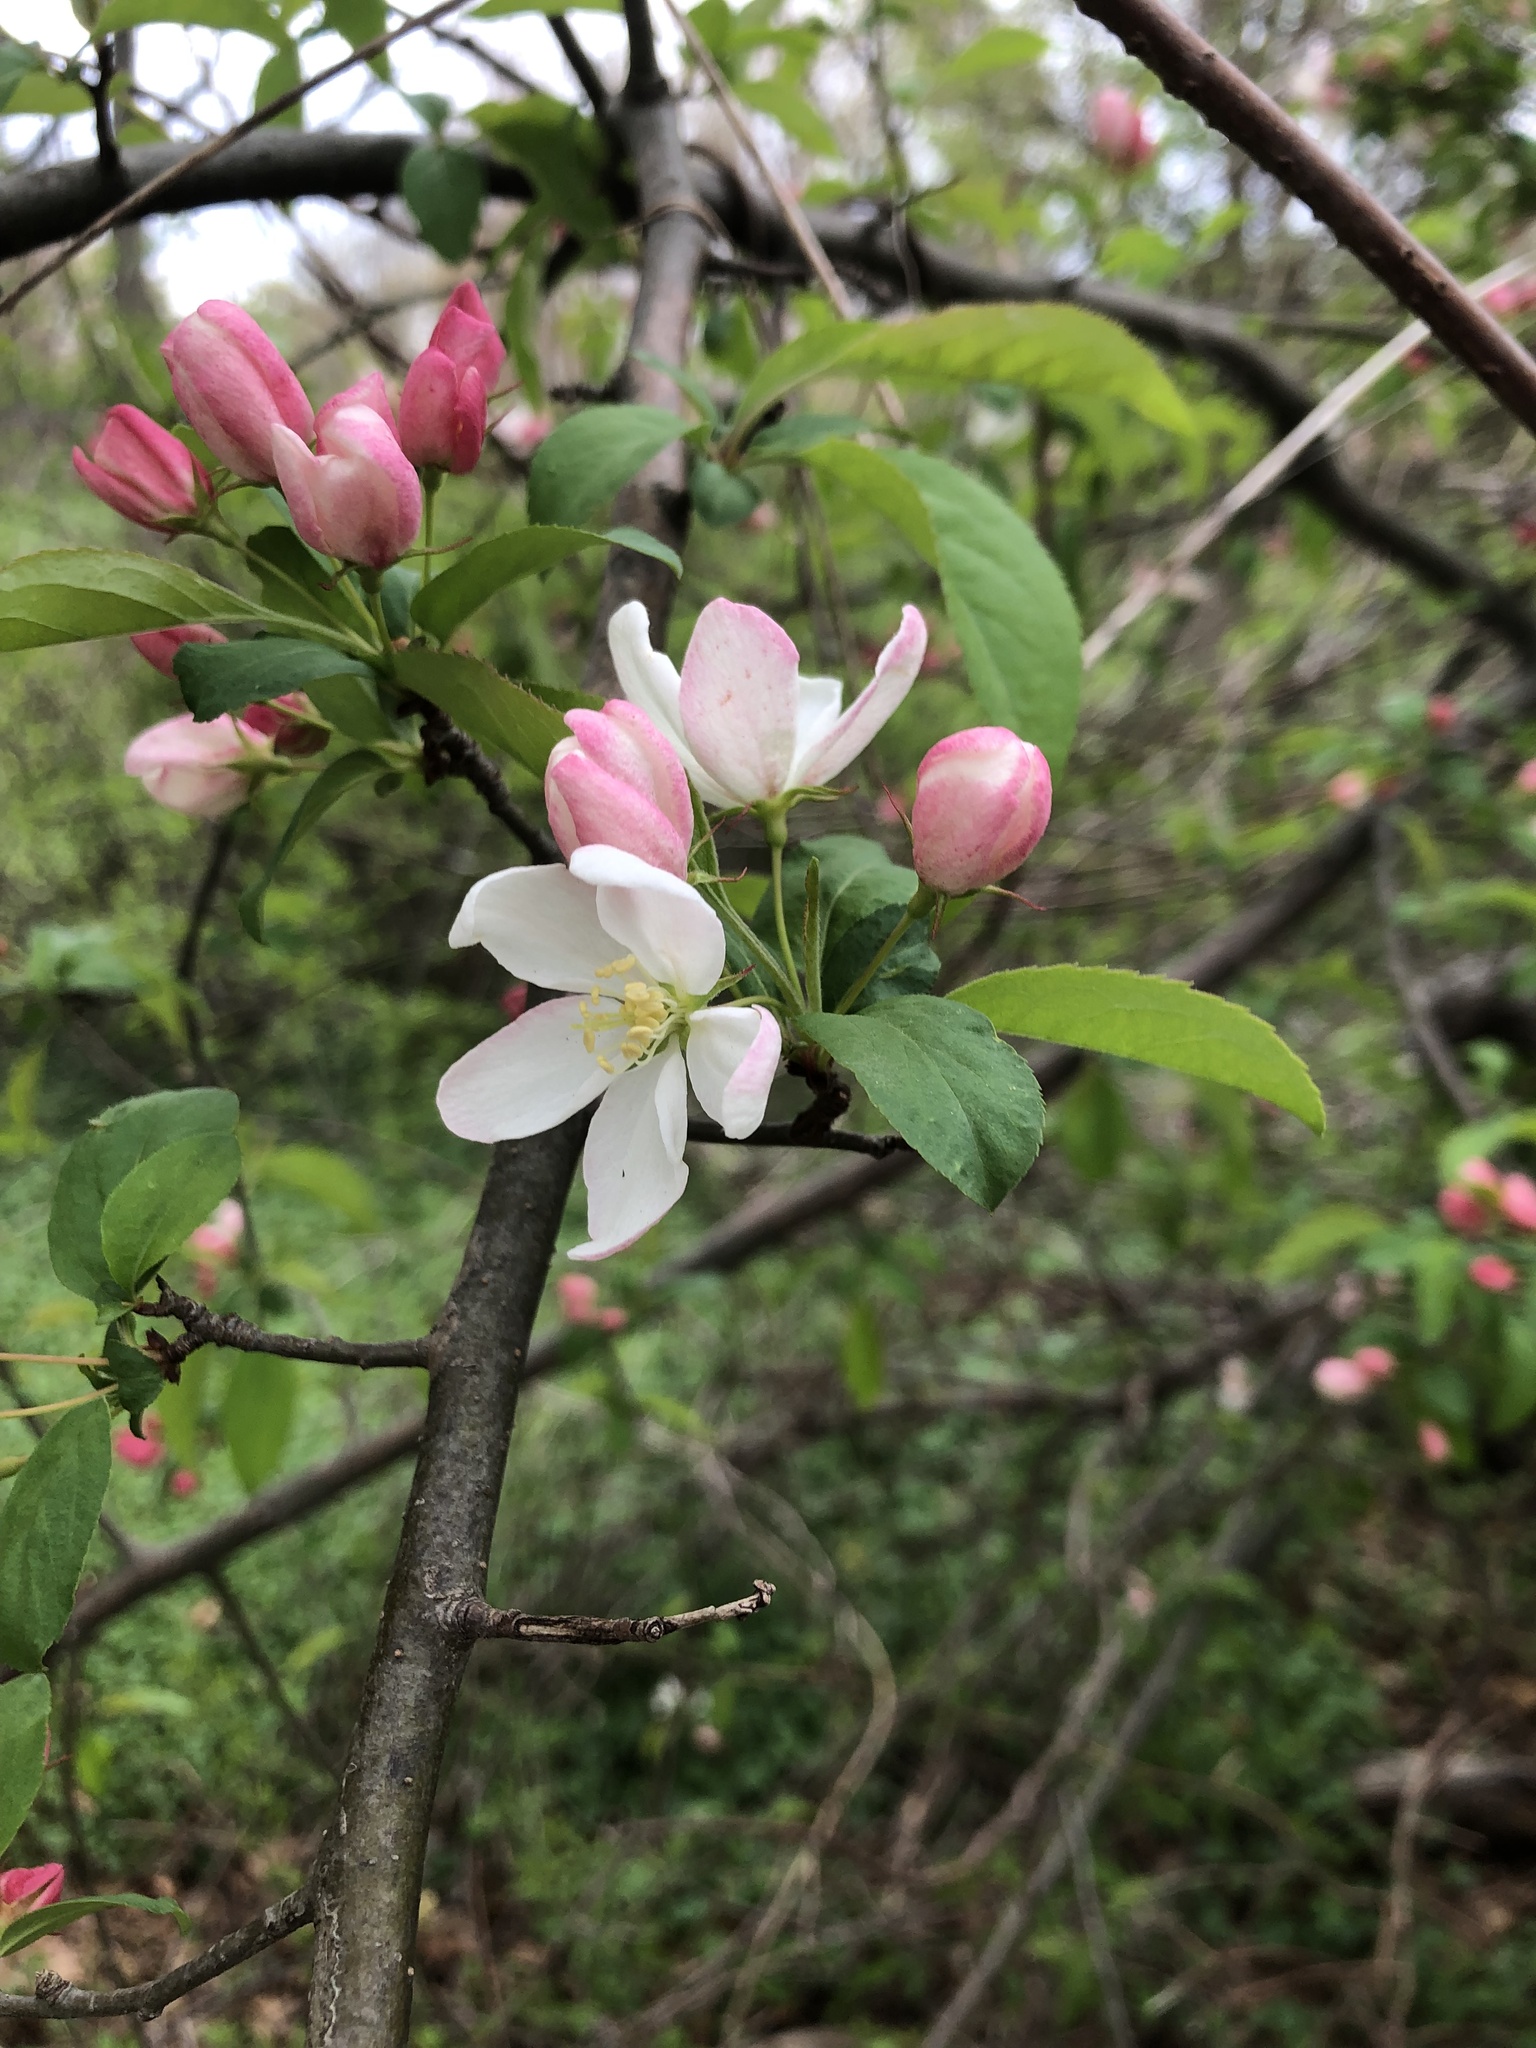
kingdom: Plantae
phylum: Tracheophyta
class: Magnoliopsida
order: Rosales
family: Rosaceae
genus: Malus
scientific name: Malus domestica
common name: Apple
